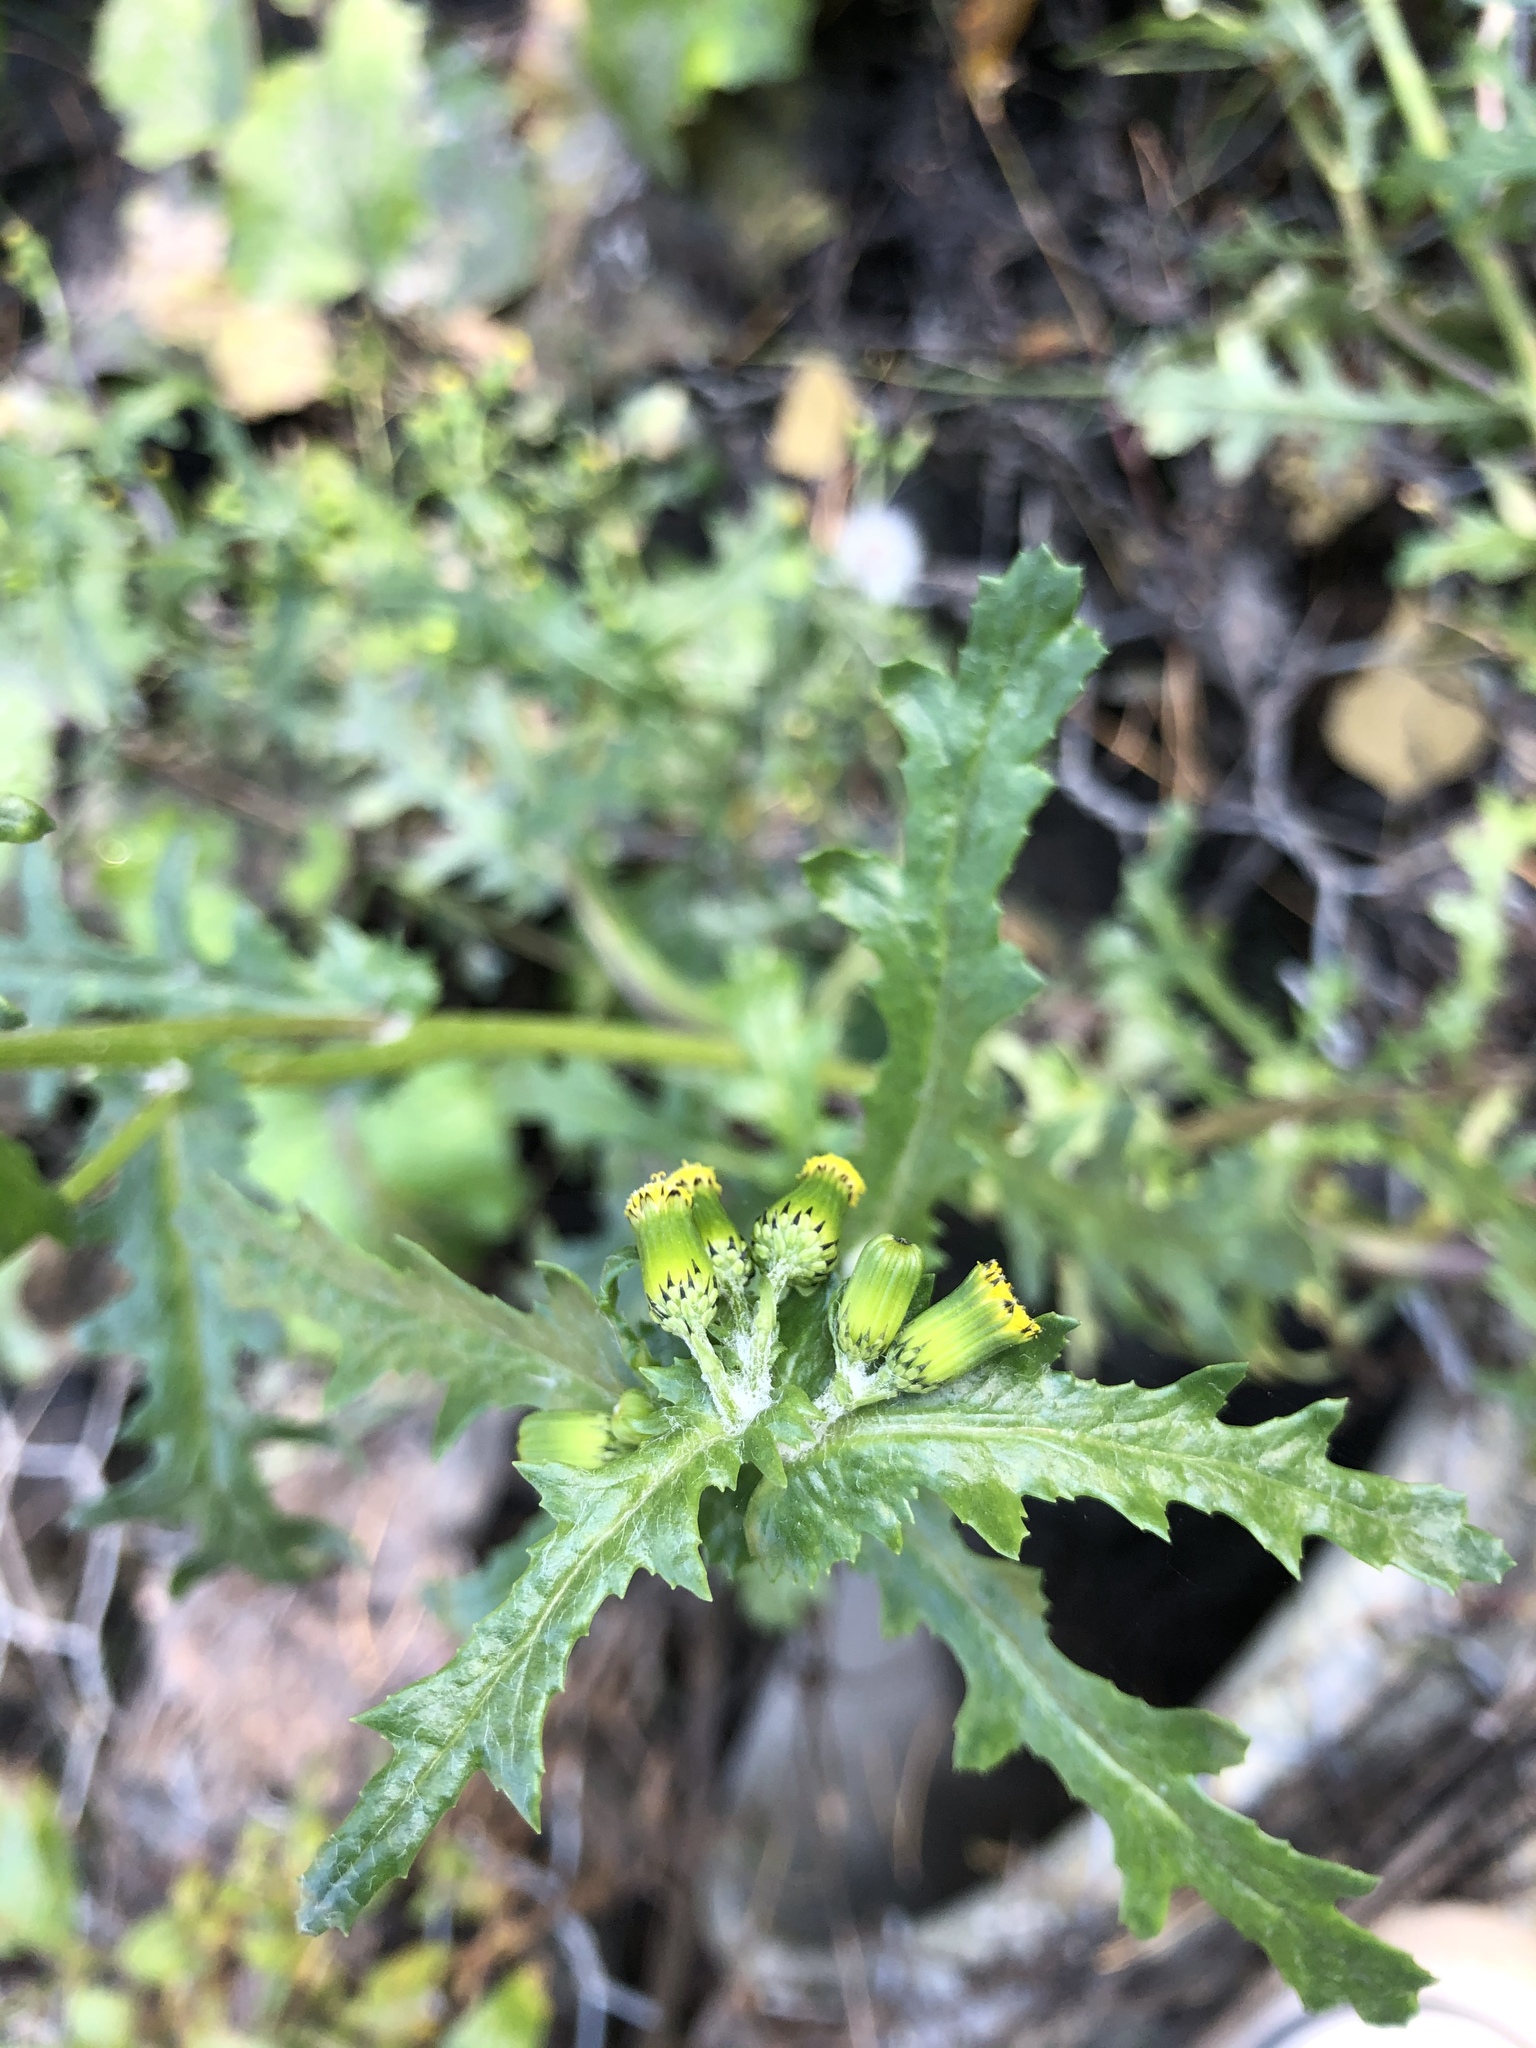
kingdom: Plantae
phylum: Tracheophyta
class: Magnoliopsida
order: Asterales
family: Asteraceae
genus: Senecio
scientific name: Senecio vulgaris
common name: Old-man-in-the-spring
